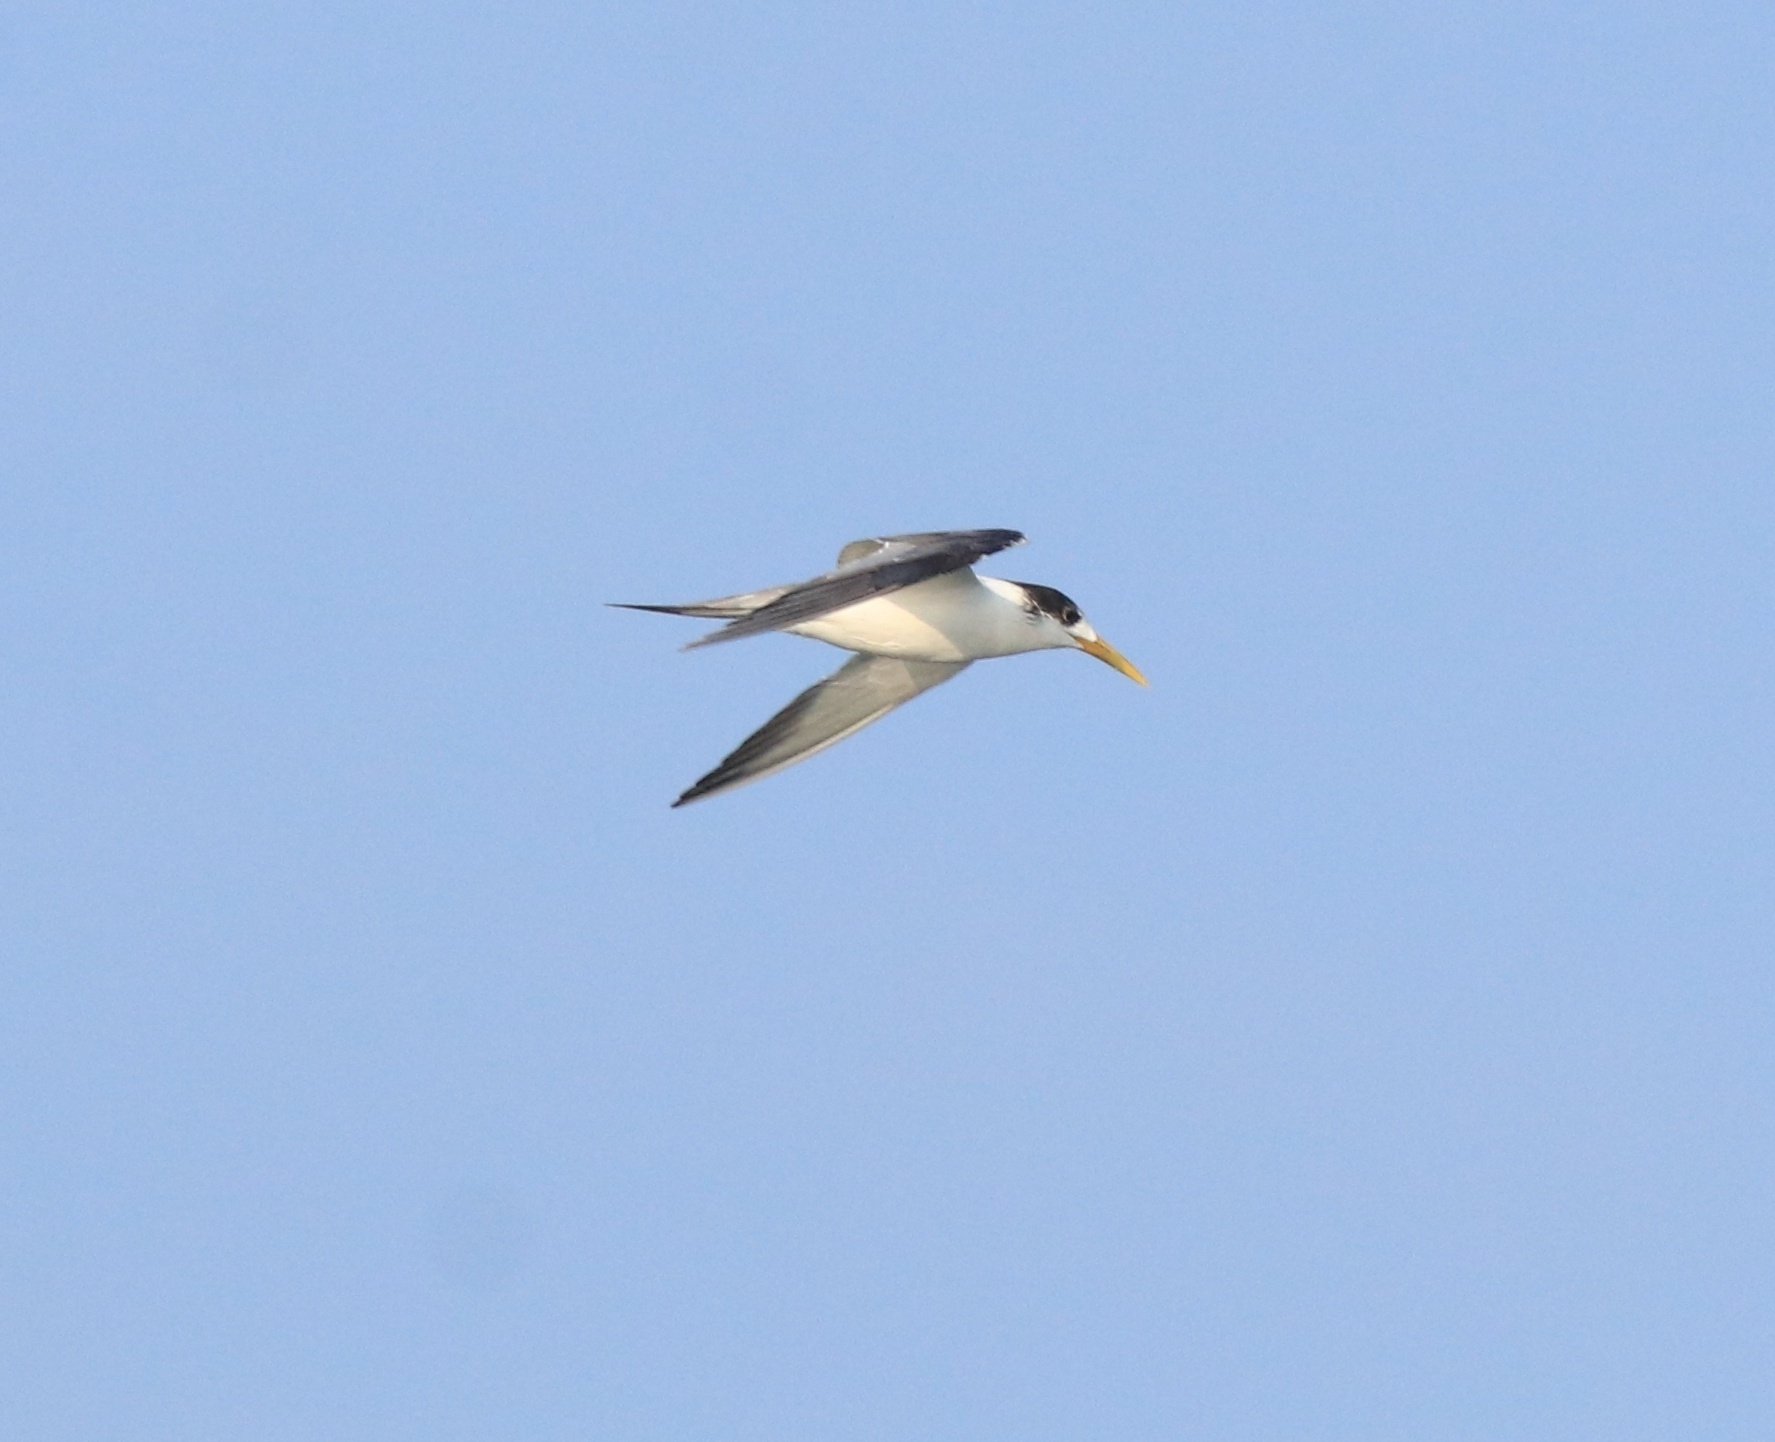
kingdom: Animalia
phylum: Chordata
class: Aves
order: Charadriiformes
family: Laridae
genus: Thalasseus
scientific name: Thalasseus bergii
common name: Greater crested tern
